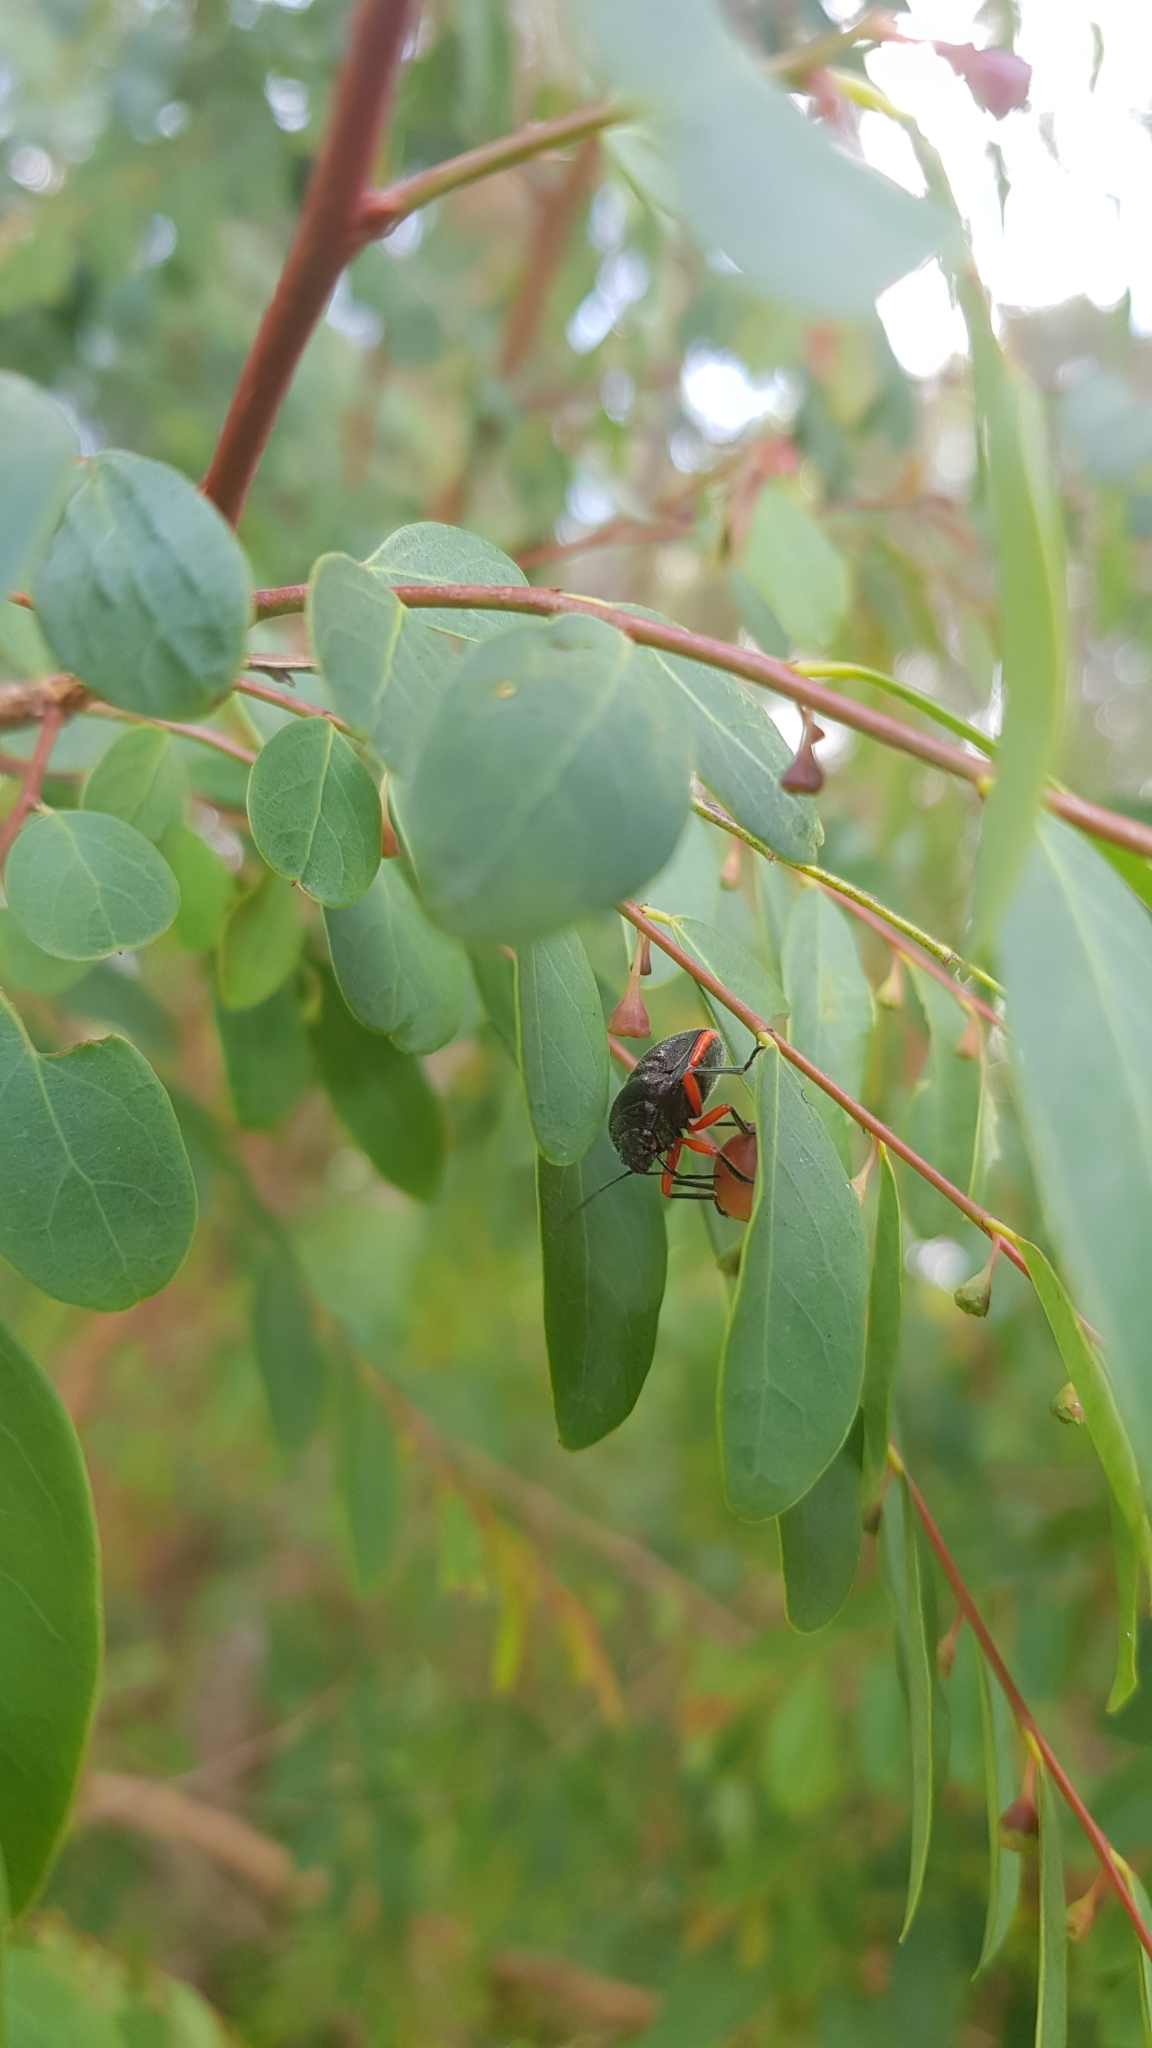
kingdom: Animalia
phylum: Arthropoda
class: Insecta
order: Hemiptera
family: Scutelleridae
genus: Lampromicra
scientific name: Lampromicra
